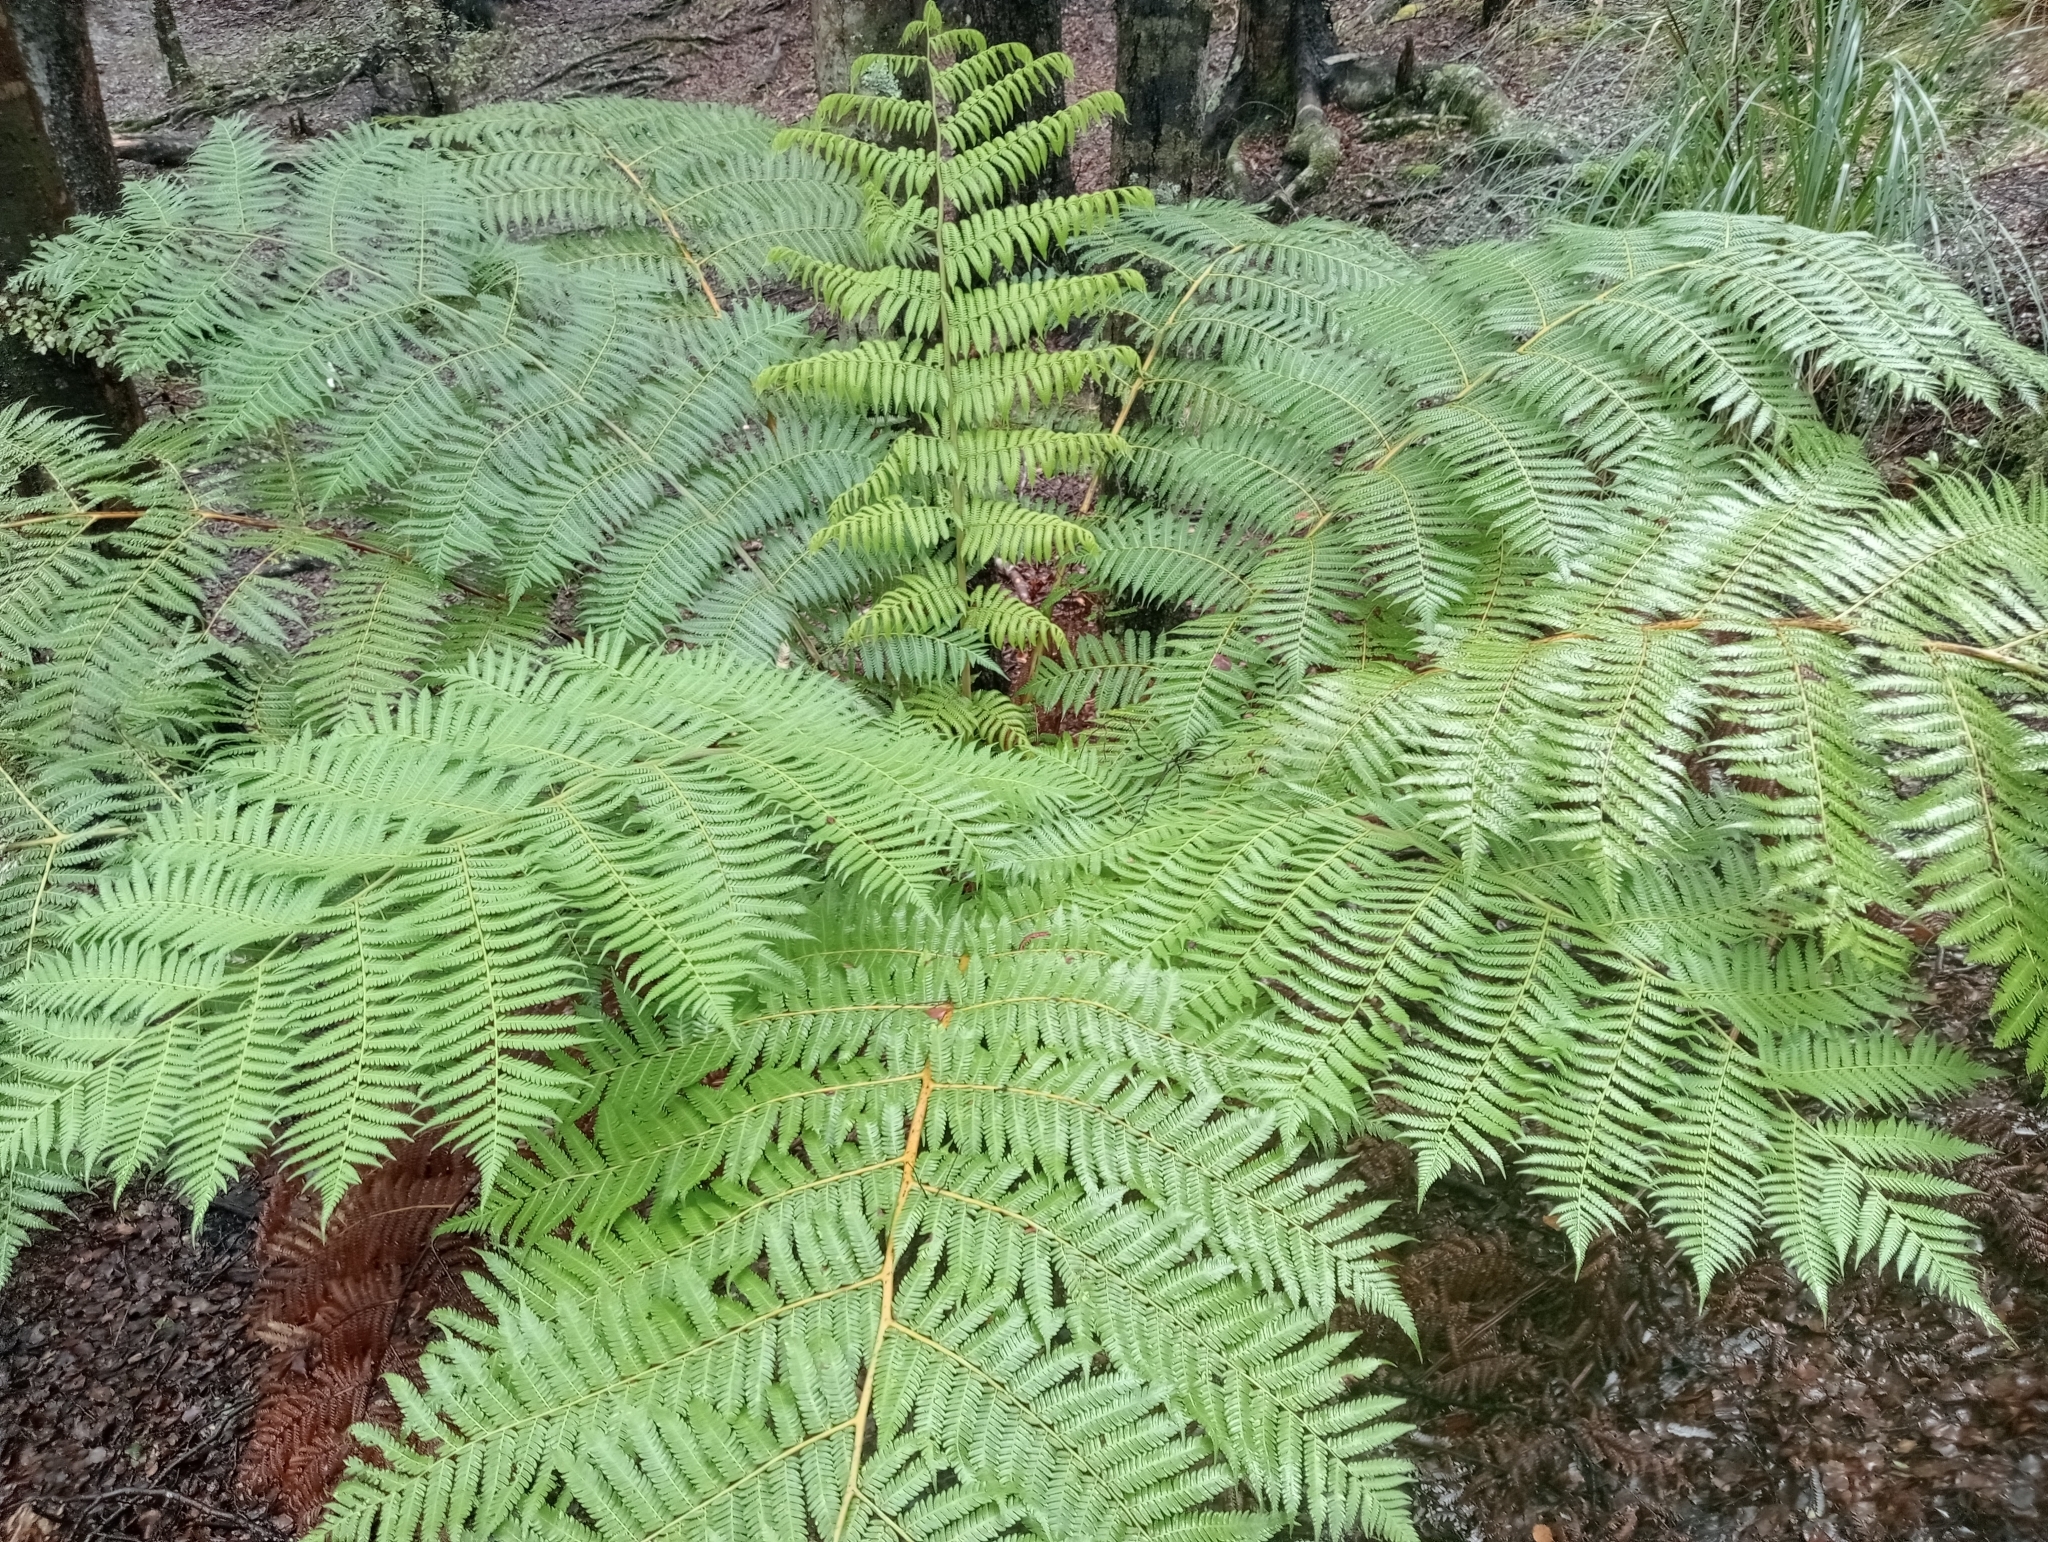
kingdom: Plantae
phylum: Tracheophyta
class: Polypodiopsida
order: Cyatheales
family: Cyatheaceae
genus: Alsophila
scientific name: Alsophila dealbata
